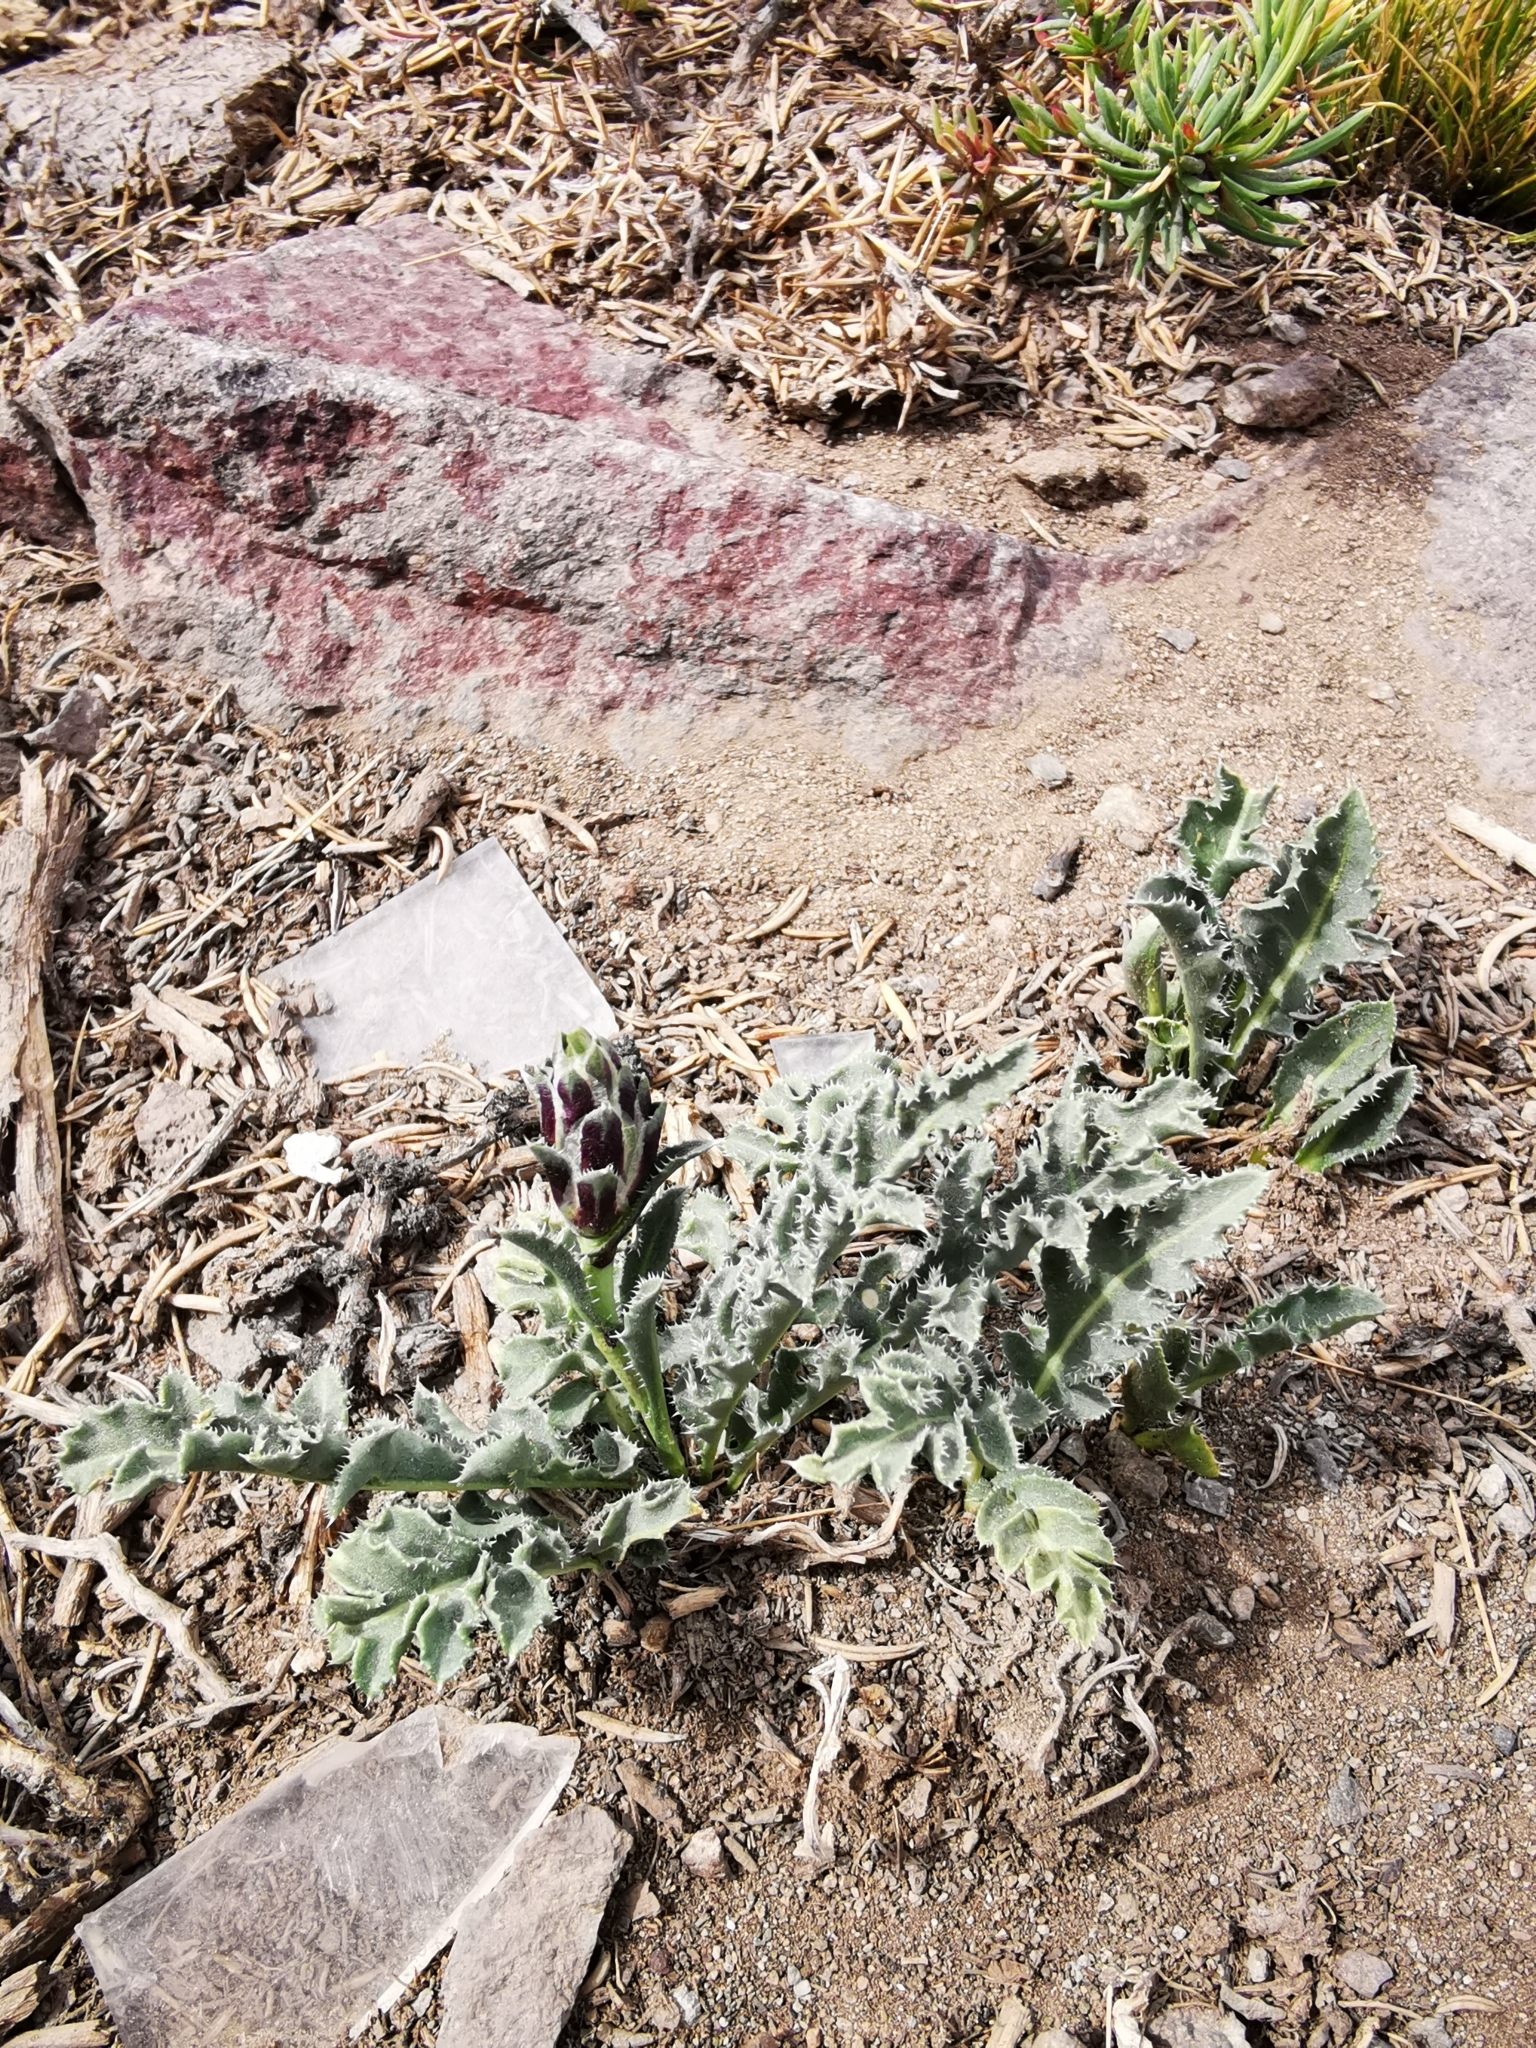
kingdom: Plantae
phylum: Tracheophyta
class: Magnoliopsida
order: Asterales
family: Asteraceae
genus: Perezia
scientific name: Perezia carthamoides
